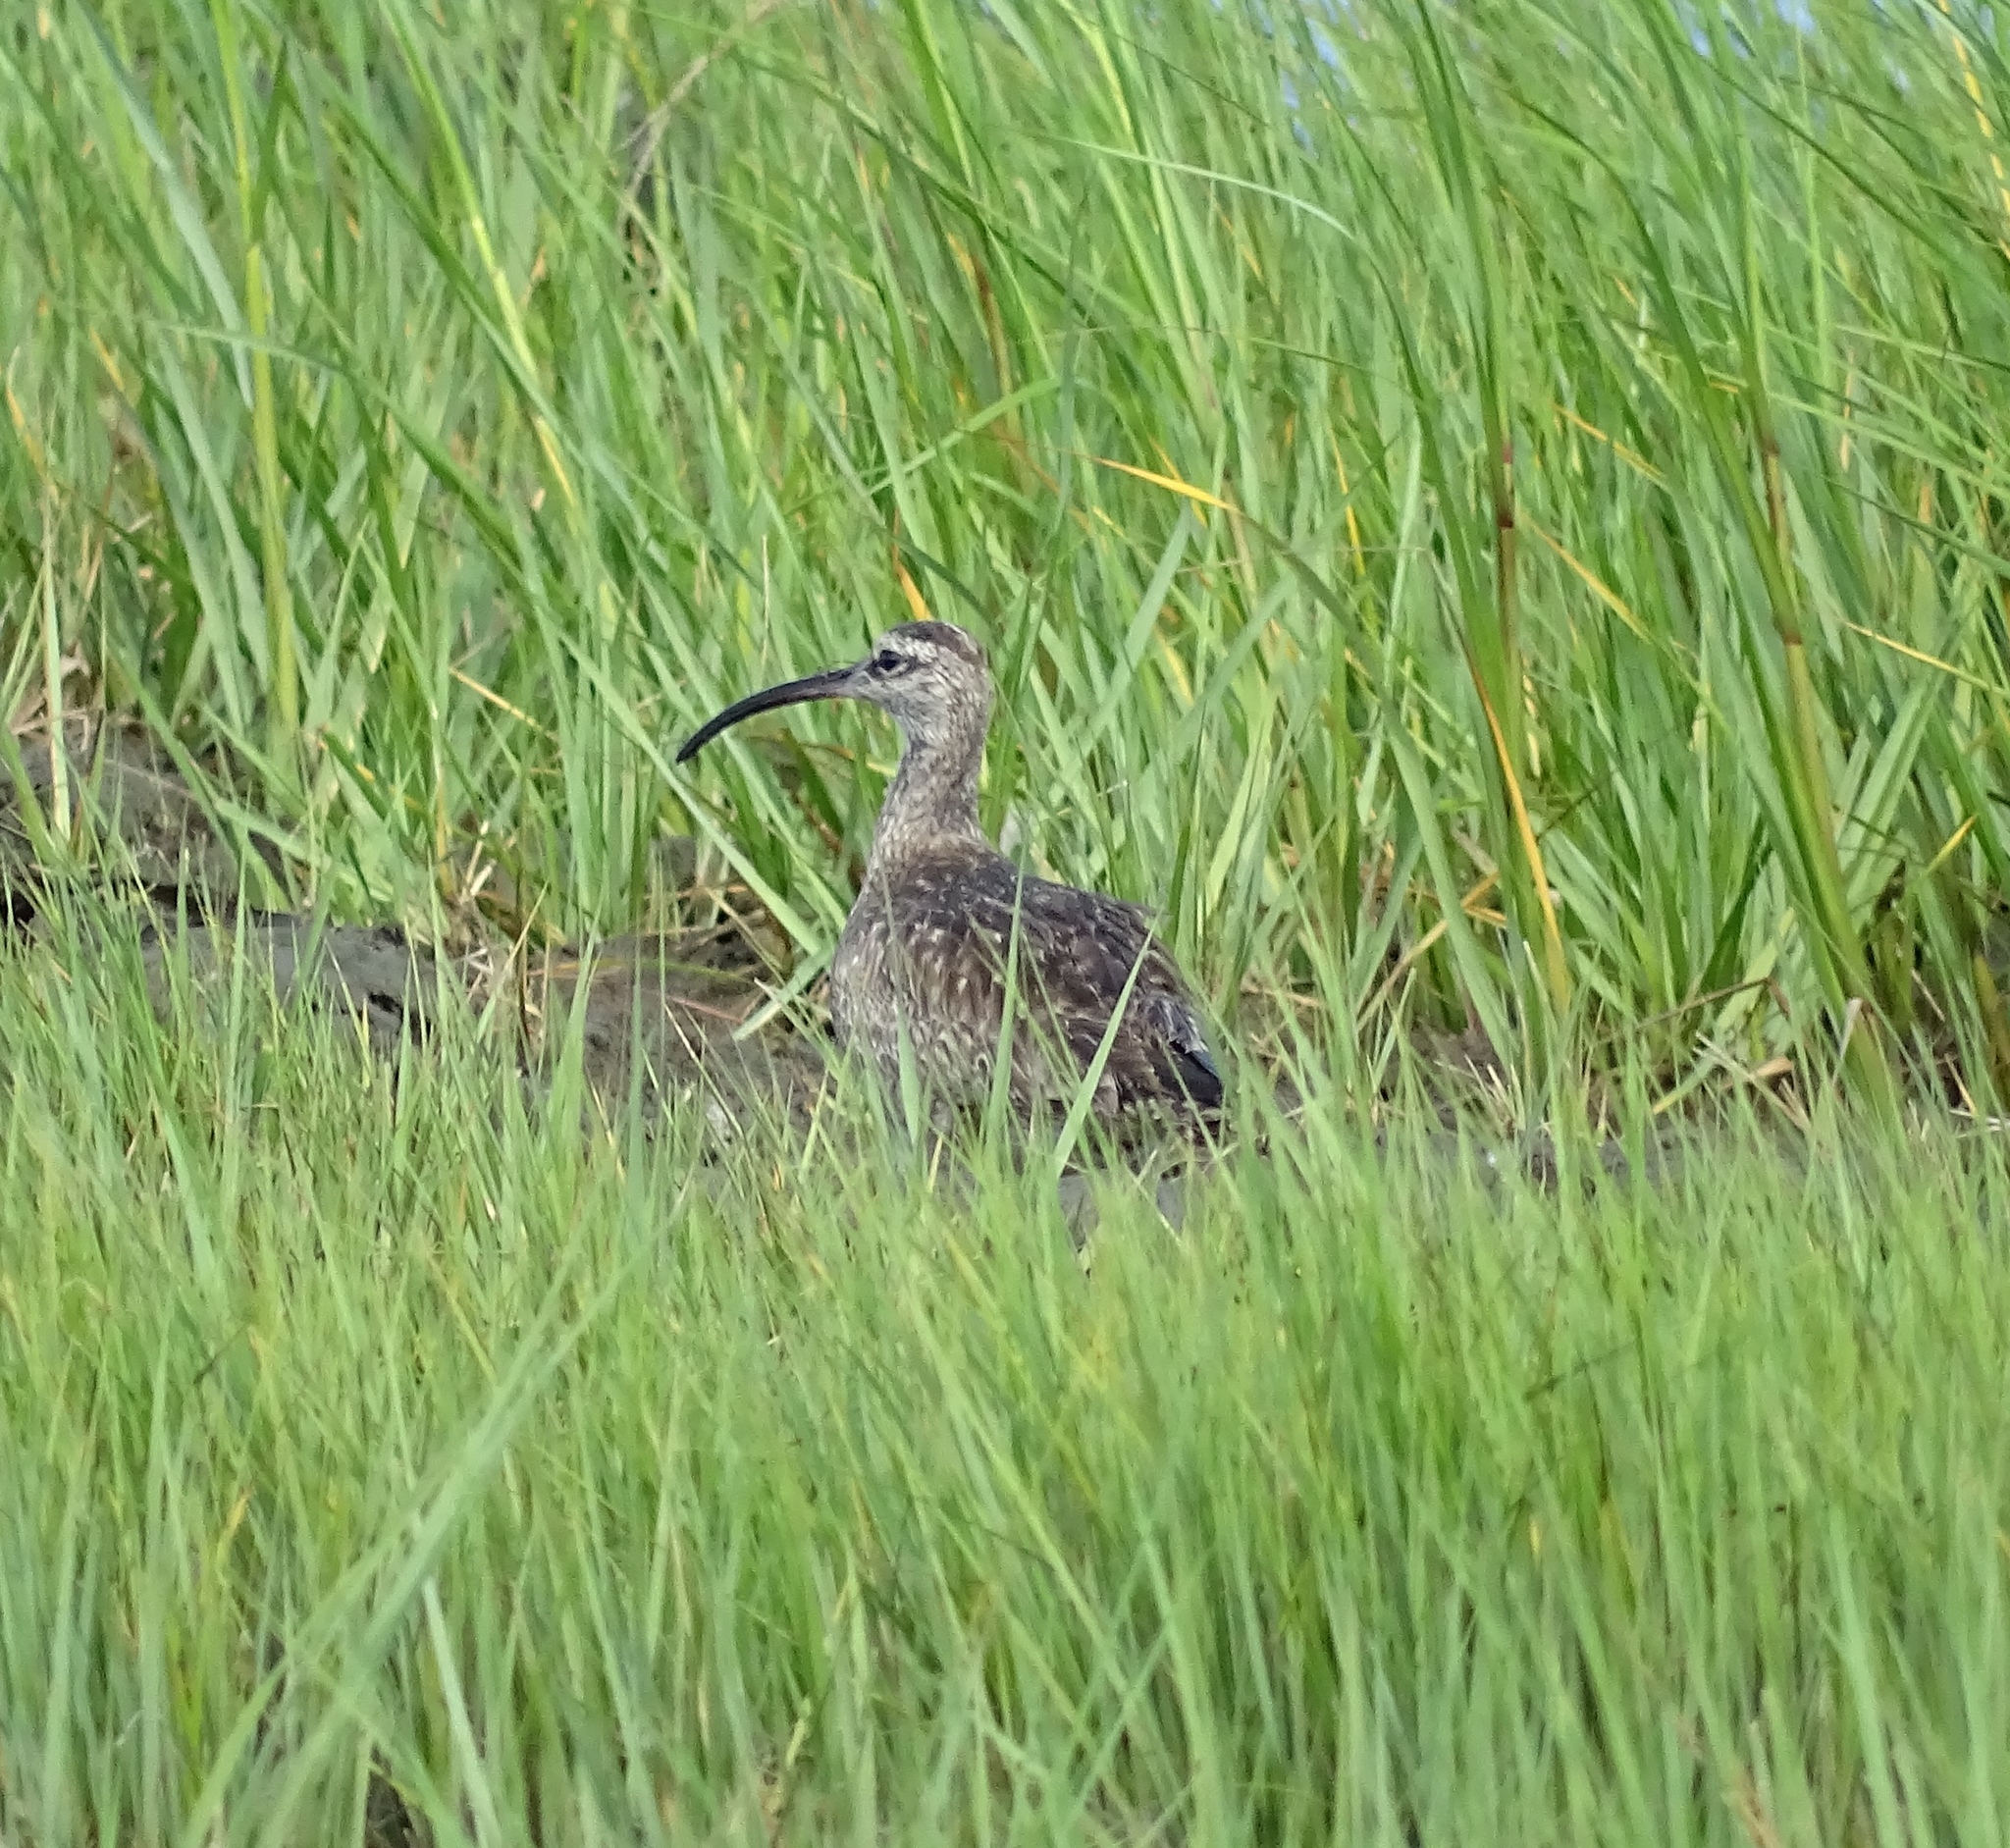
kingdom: Animalia
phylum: Chordata
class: Aves
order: Charadriiformes
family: Scolopacidae
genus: Numenius
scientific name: Numenius phaeopus
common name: Whimbrel
